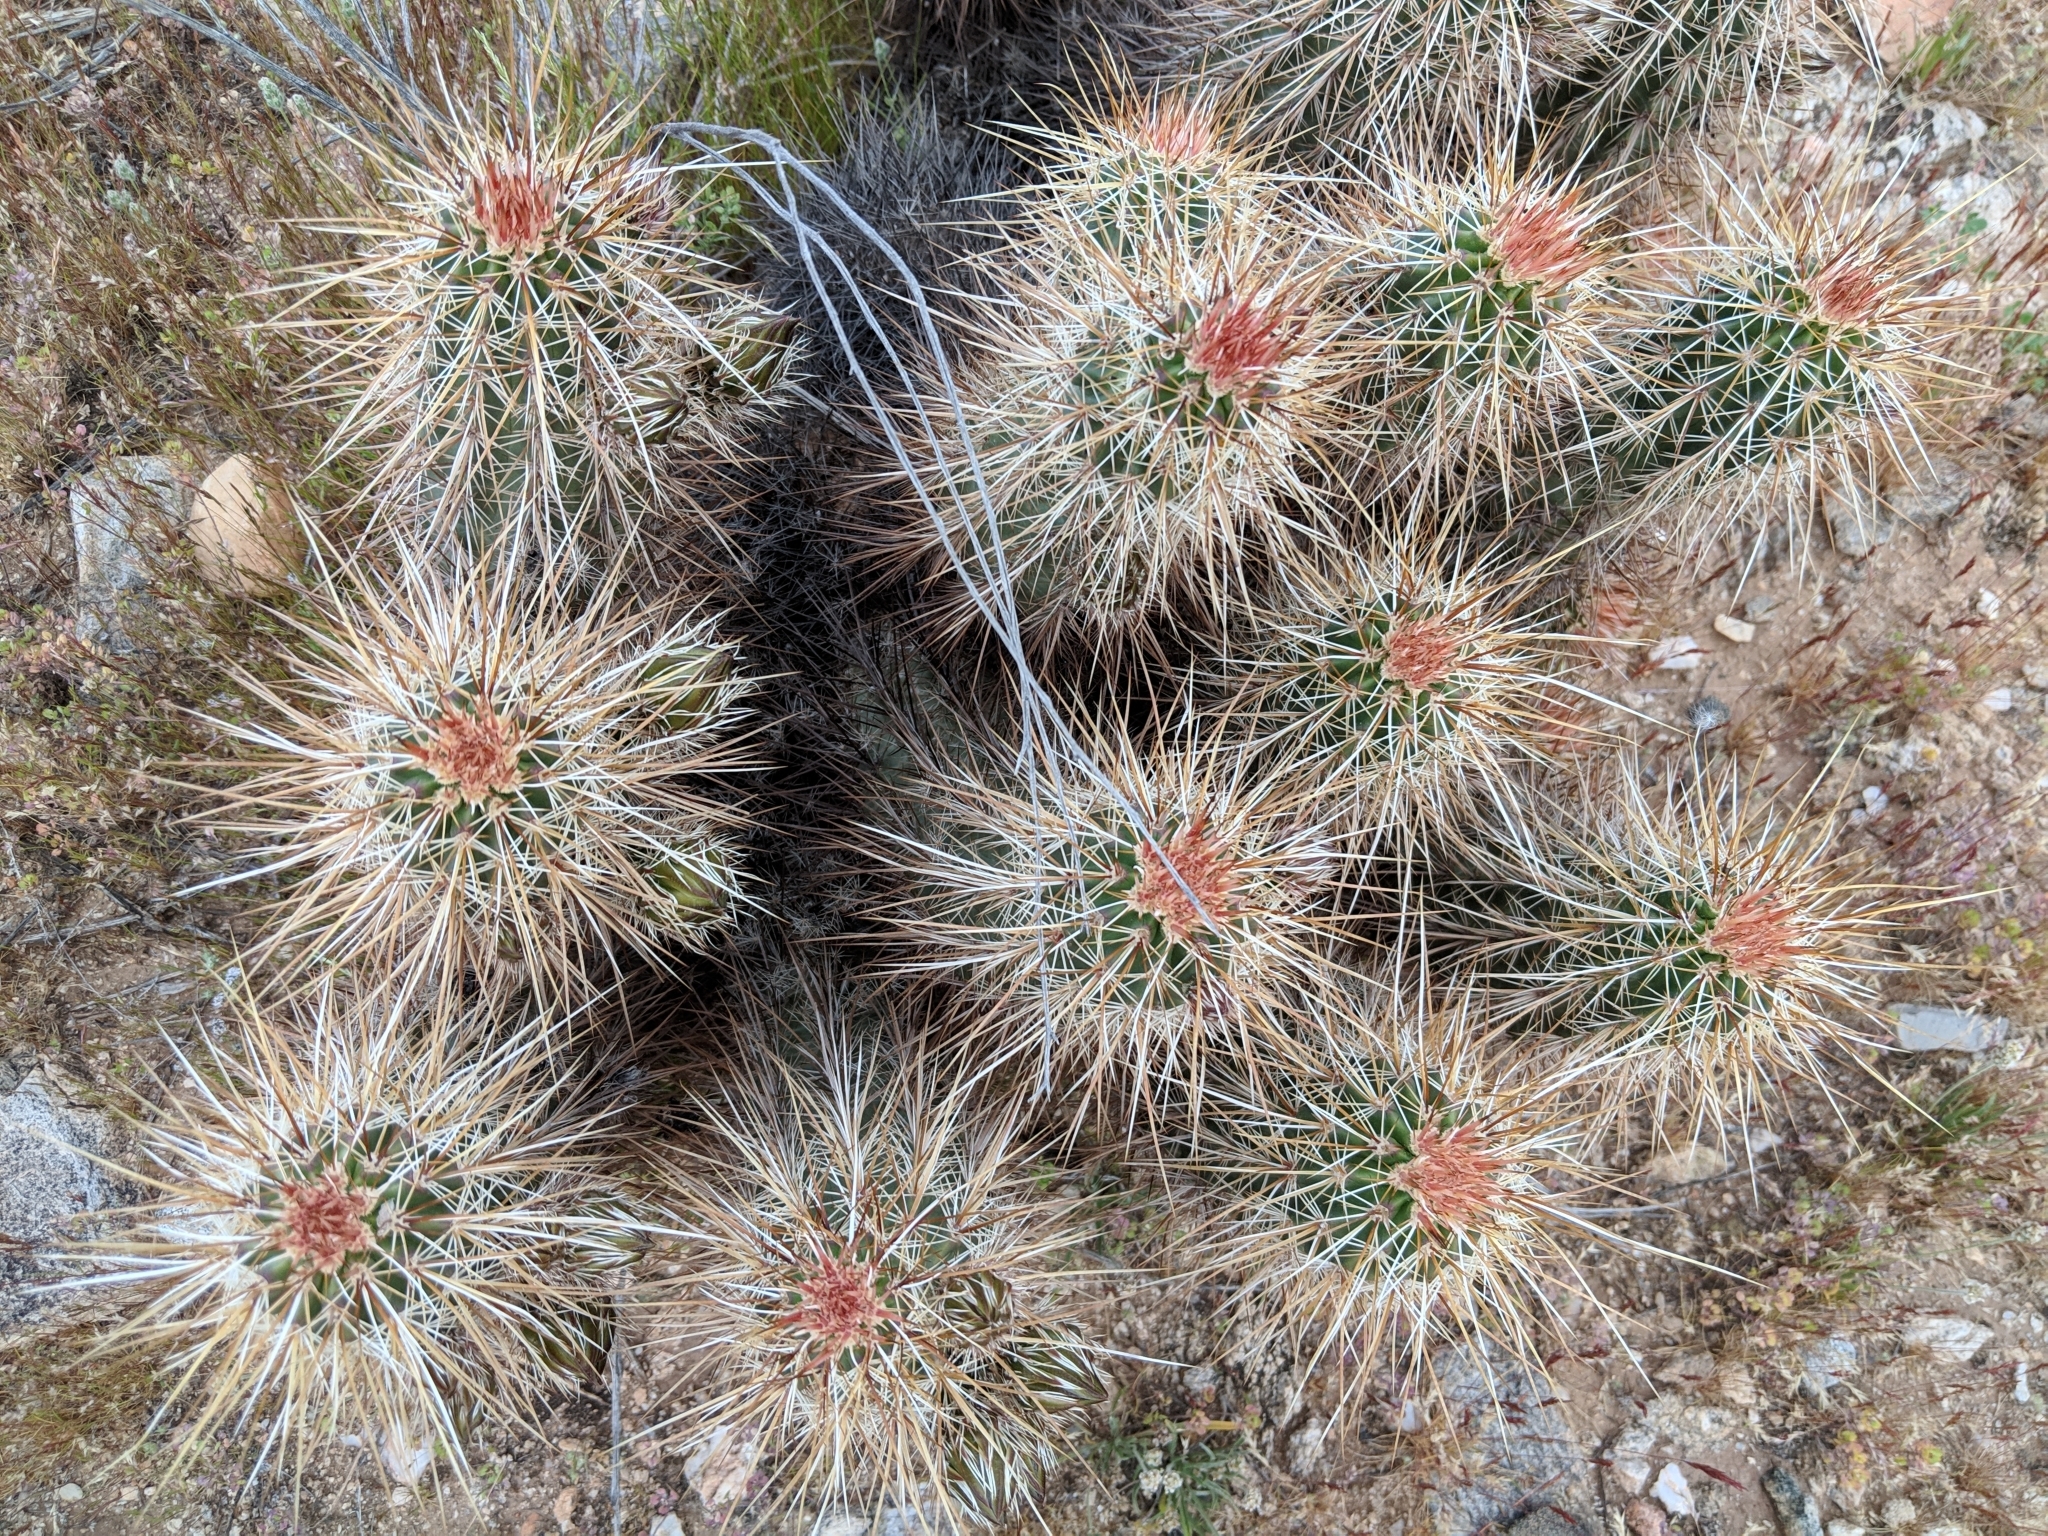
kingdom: Plantae
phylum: Tracheophyta
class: Magnoliopsida
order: Caryophyllales
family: Cactaceae
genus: Echinocereus
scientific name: Echinocereus engelmannii
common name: Engelmann's hedgehog cactus
